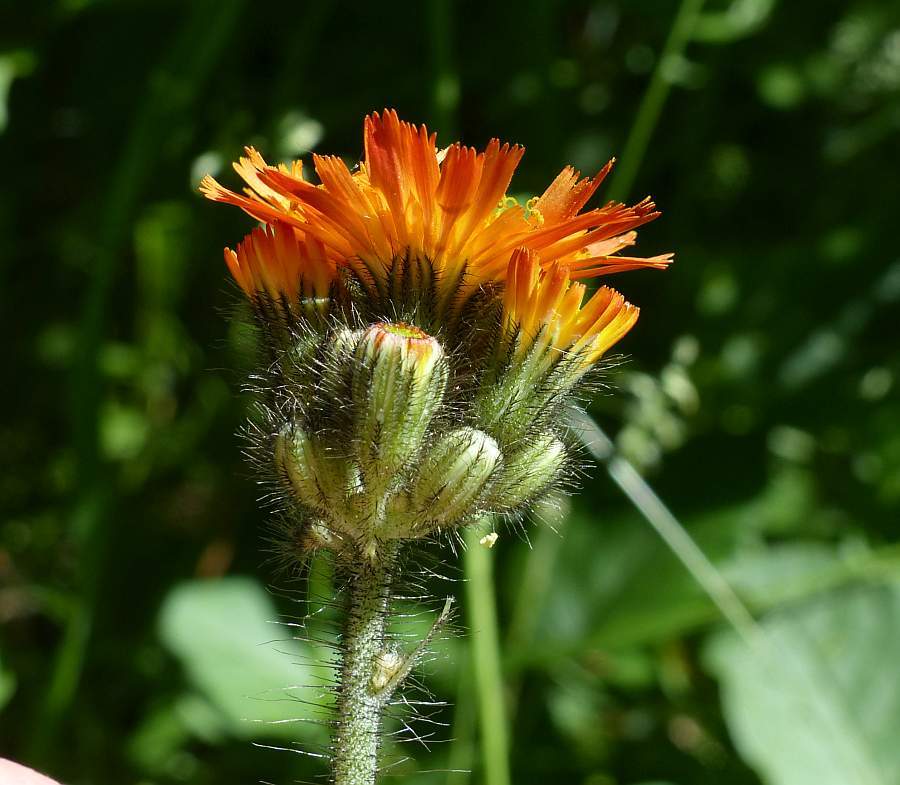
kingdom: Plantae
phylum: Tracheophyta
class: Magnoliopsida
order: Asterales
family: Asteraceae
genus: Pilosella
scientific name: Pilosella aurantiaca
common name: Fox-and-cubs
